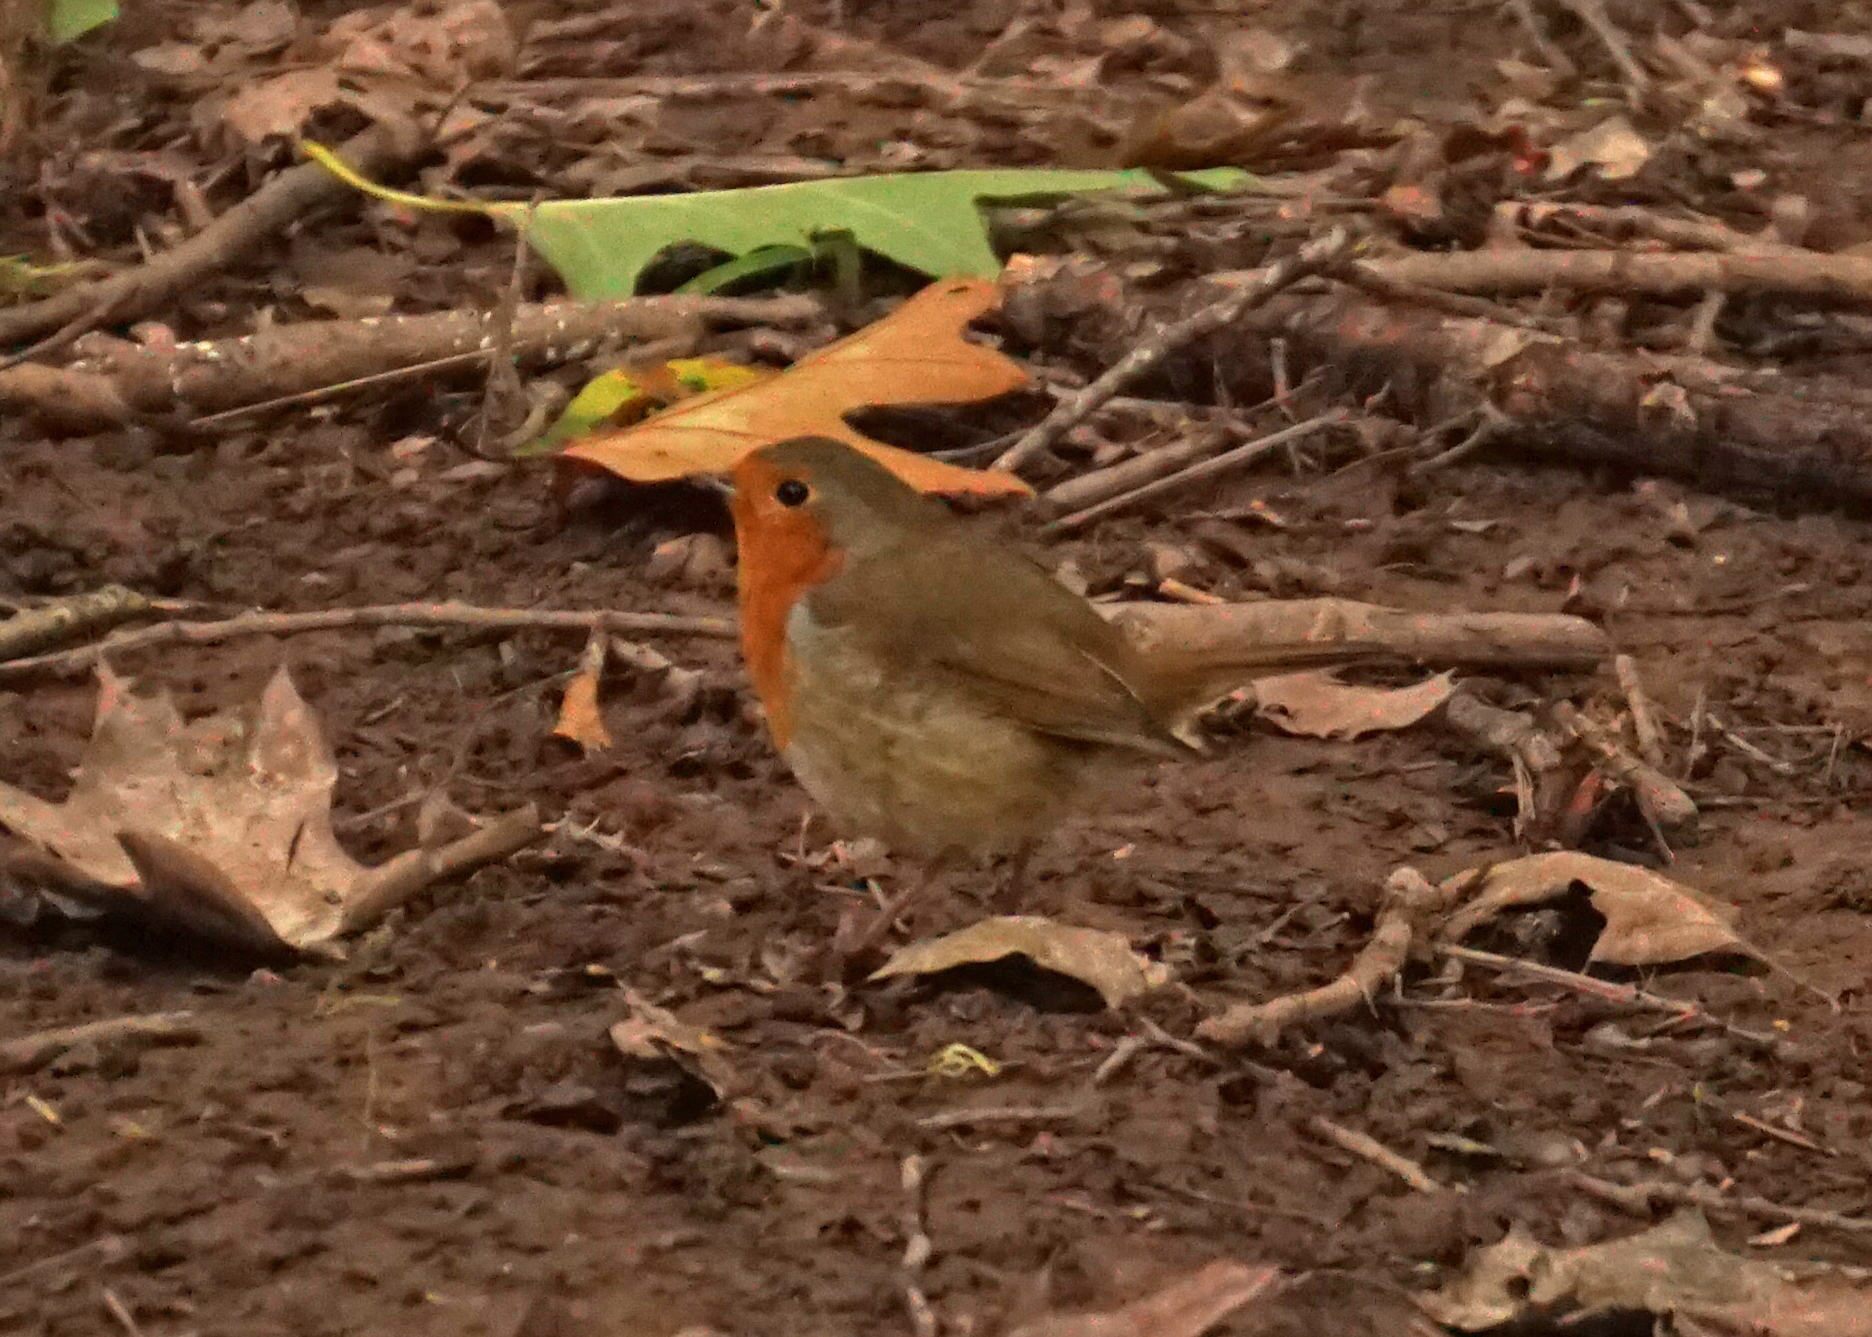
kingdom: Animalia
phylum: Chordata
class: Aves
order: Passeriformes
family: Muscicapidae
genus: Erithacus
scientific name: Erithacus rubecula
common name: European robin
